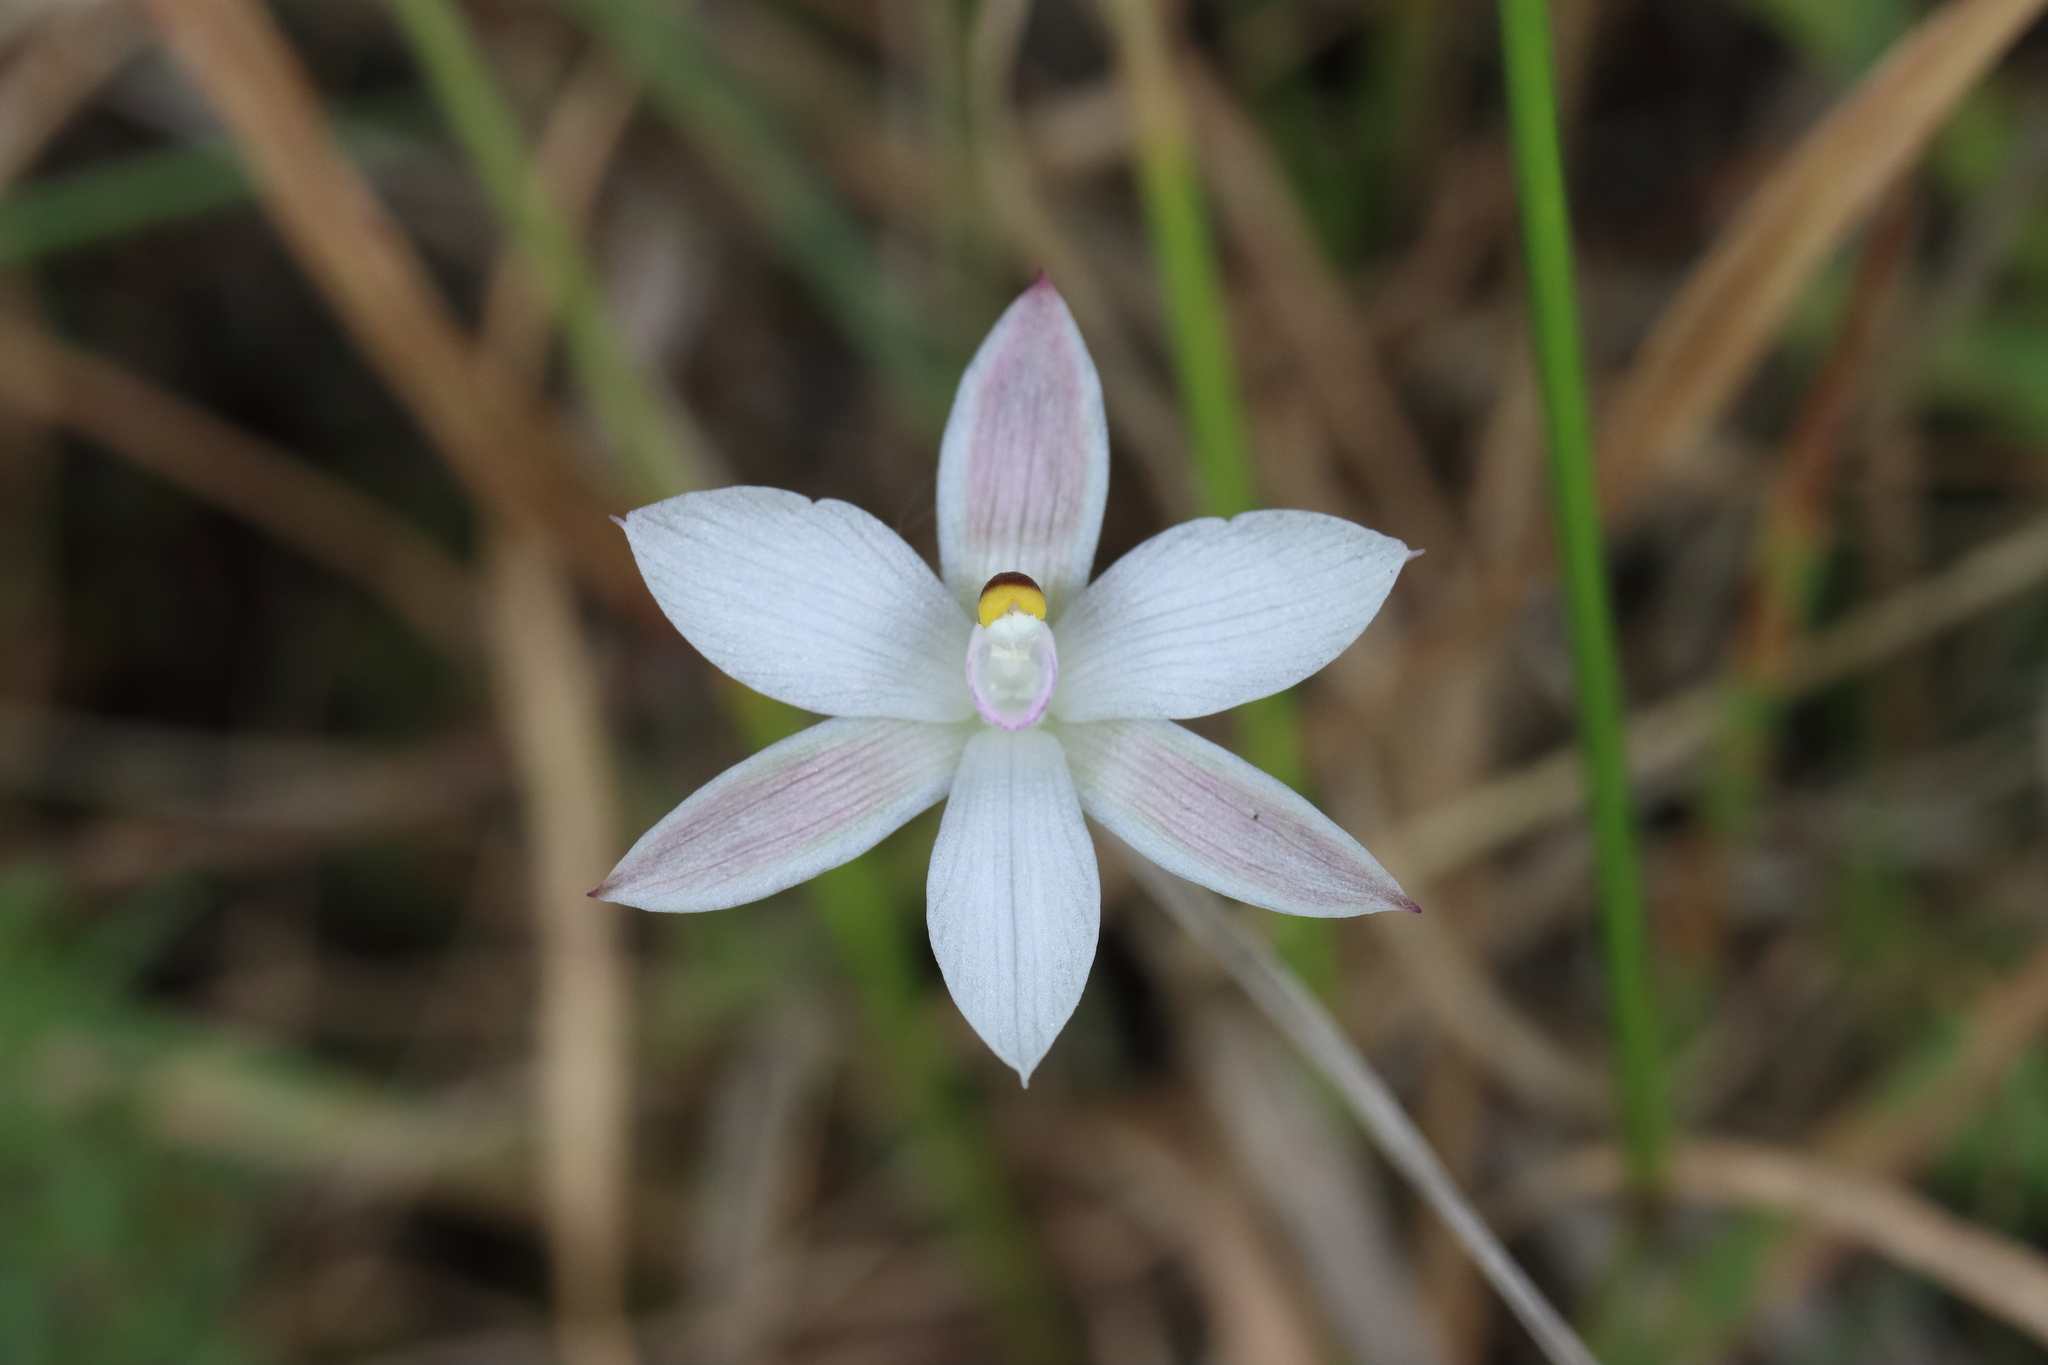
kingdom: Plantae
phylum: Tracheophyta
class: Liliopsida
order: Asparagales
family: Orchidaceae
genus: Thelymitra
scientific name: Thelymitra longifolia
